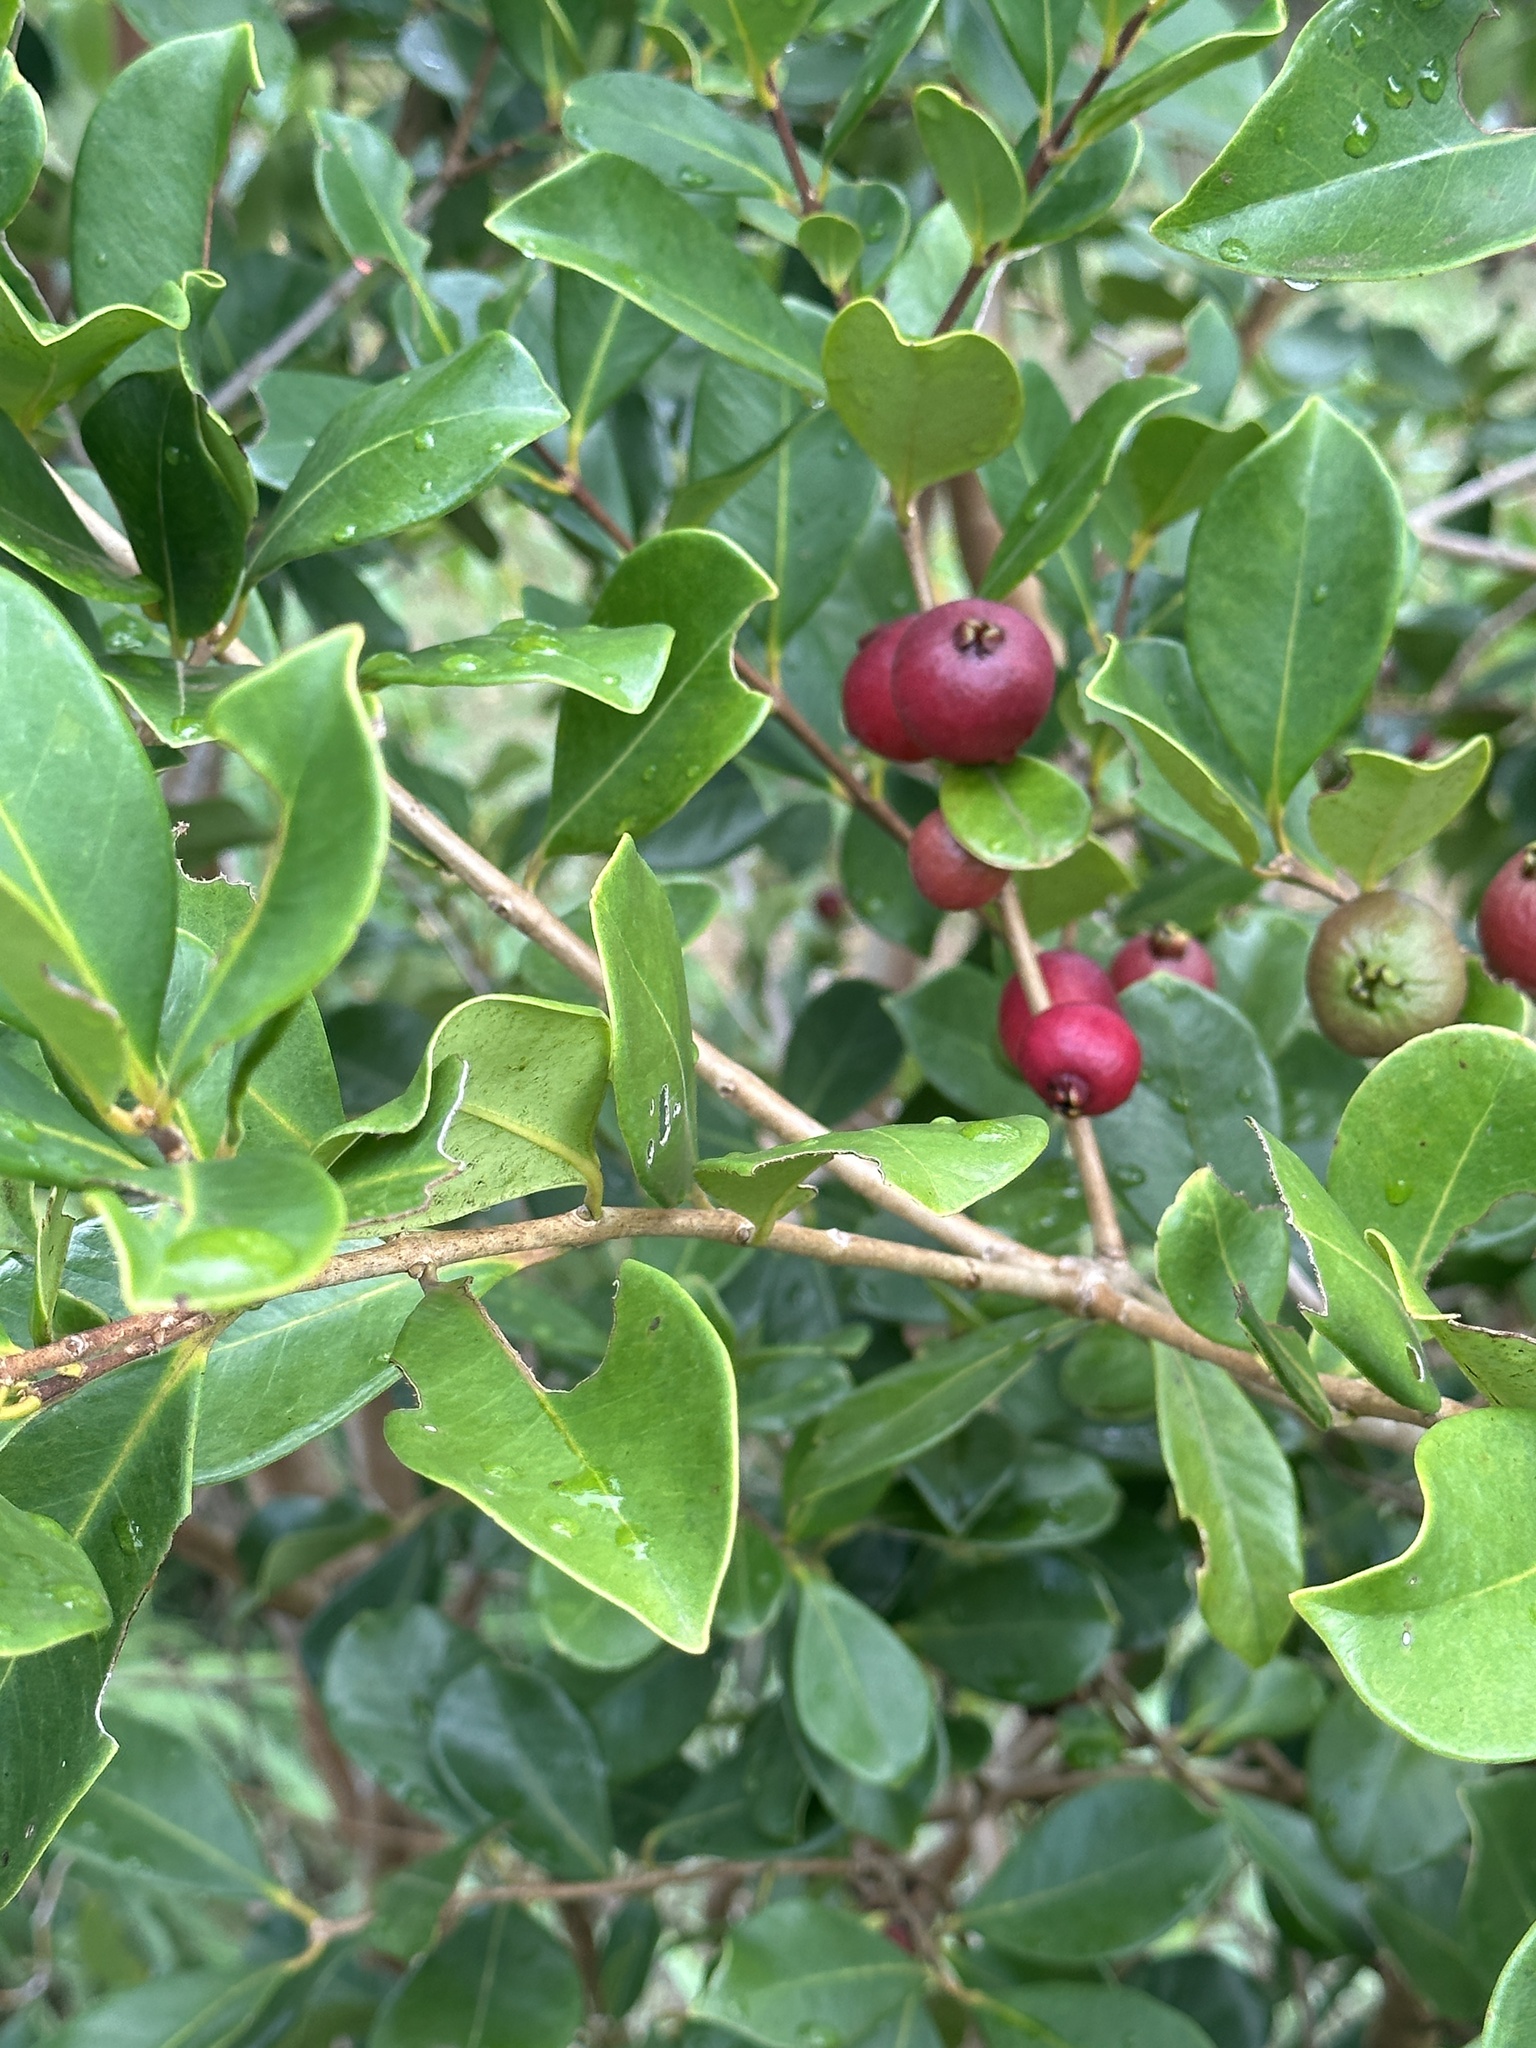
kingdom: Plantae
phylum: Tracheophyta
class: Magnoliopsida
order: Myrtales
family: Myrtaceae
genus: Psidium
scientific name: Psidium cattleianum
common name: Strawberry guava
